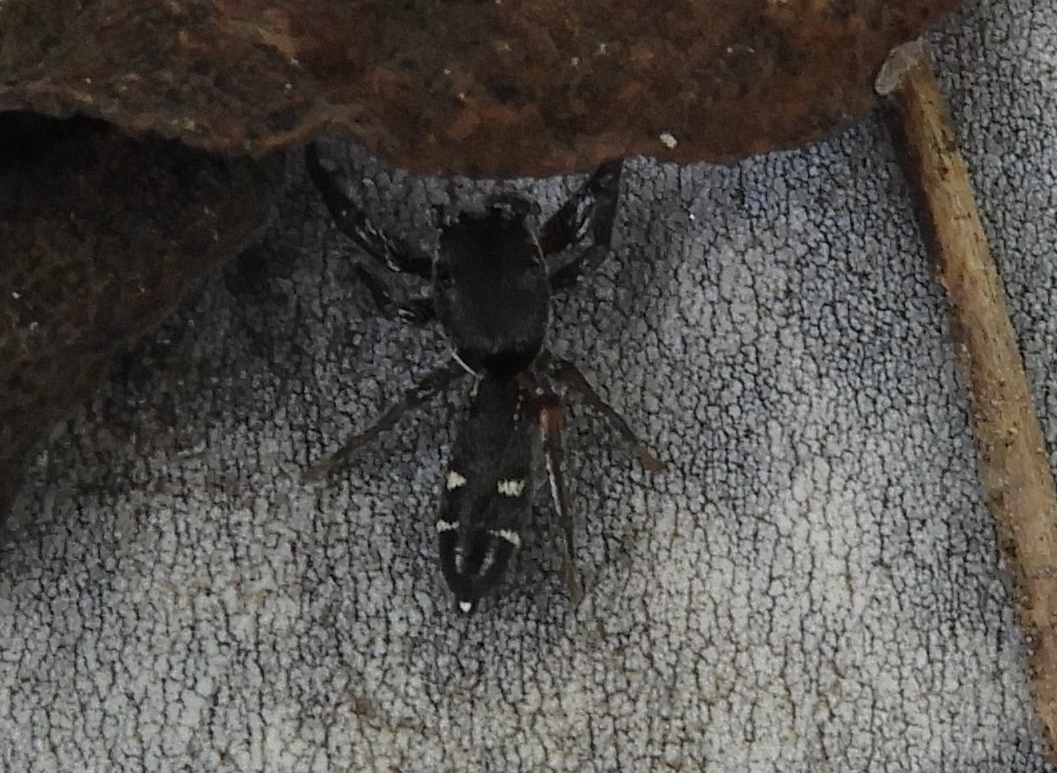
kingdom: Animalia
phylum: Arthropoda
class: Arachnida
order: Araneae
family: Salticidae
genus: Metacyrba
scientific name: Metacyrba punctata
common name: Jumping spiders
